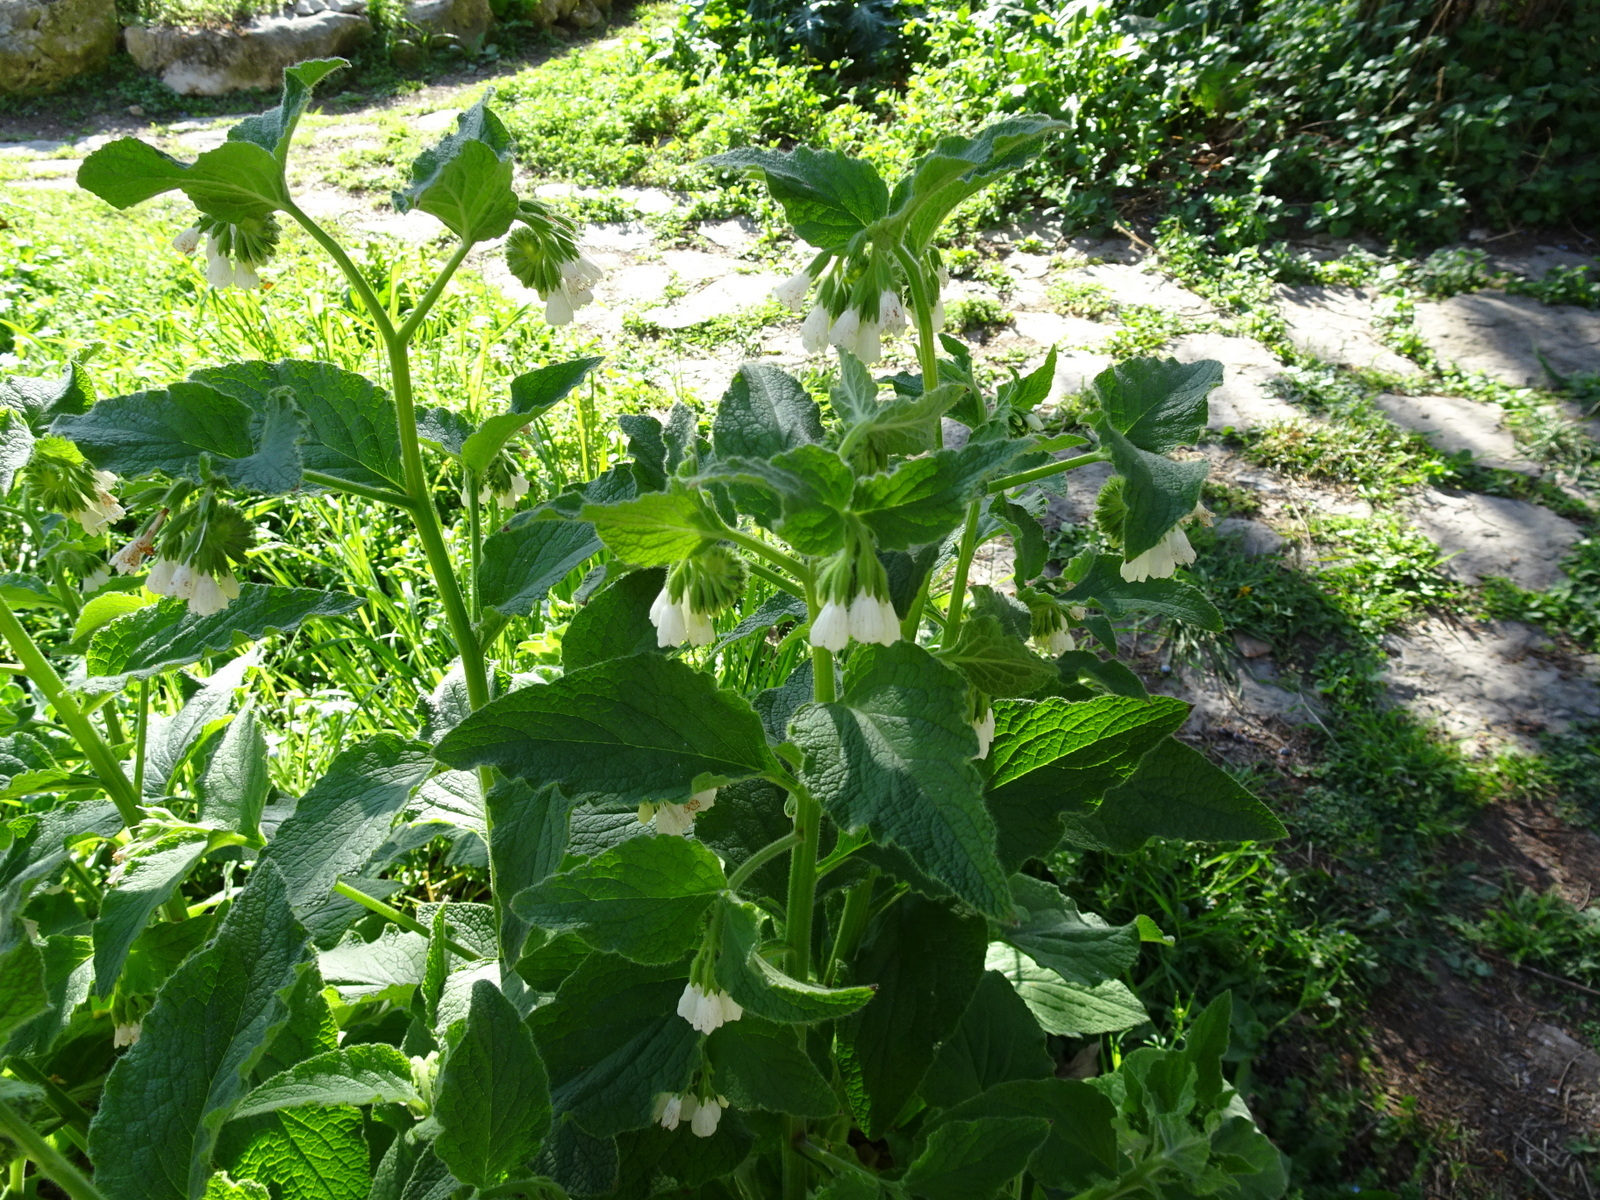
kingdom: Plantae
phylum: Tracheophyta
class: Magnoliopsida
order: Boraginales
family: Boraginaceae
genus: Symphytum
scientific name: Symphytum orientale
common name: White comfrey
